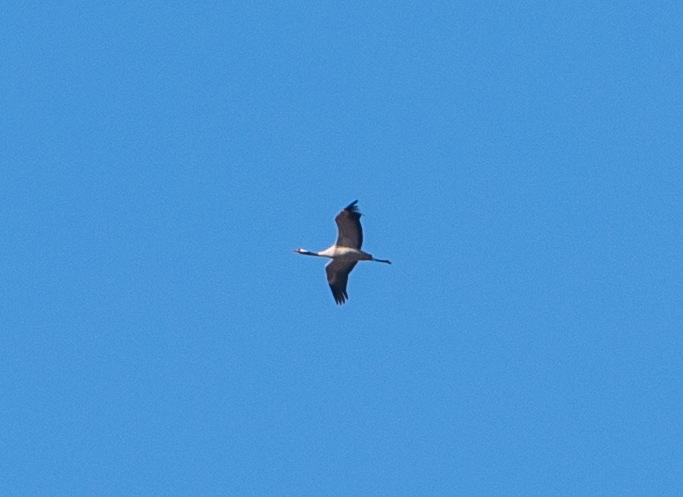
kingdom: Animalia
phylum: Chordata
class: Aves
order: Gruiformes
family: Gruidae
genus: Grus
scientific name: Grus grus
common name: Common crane
